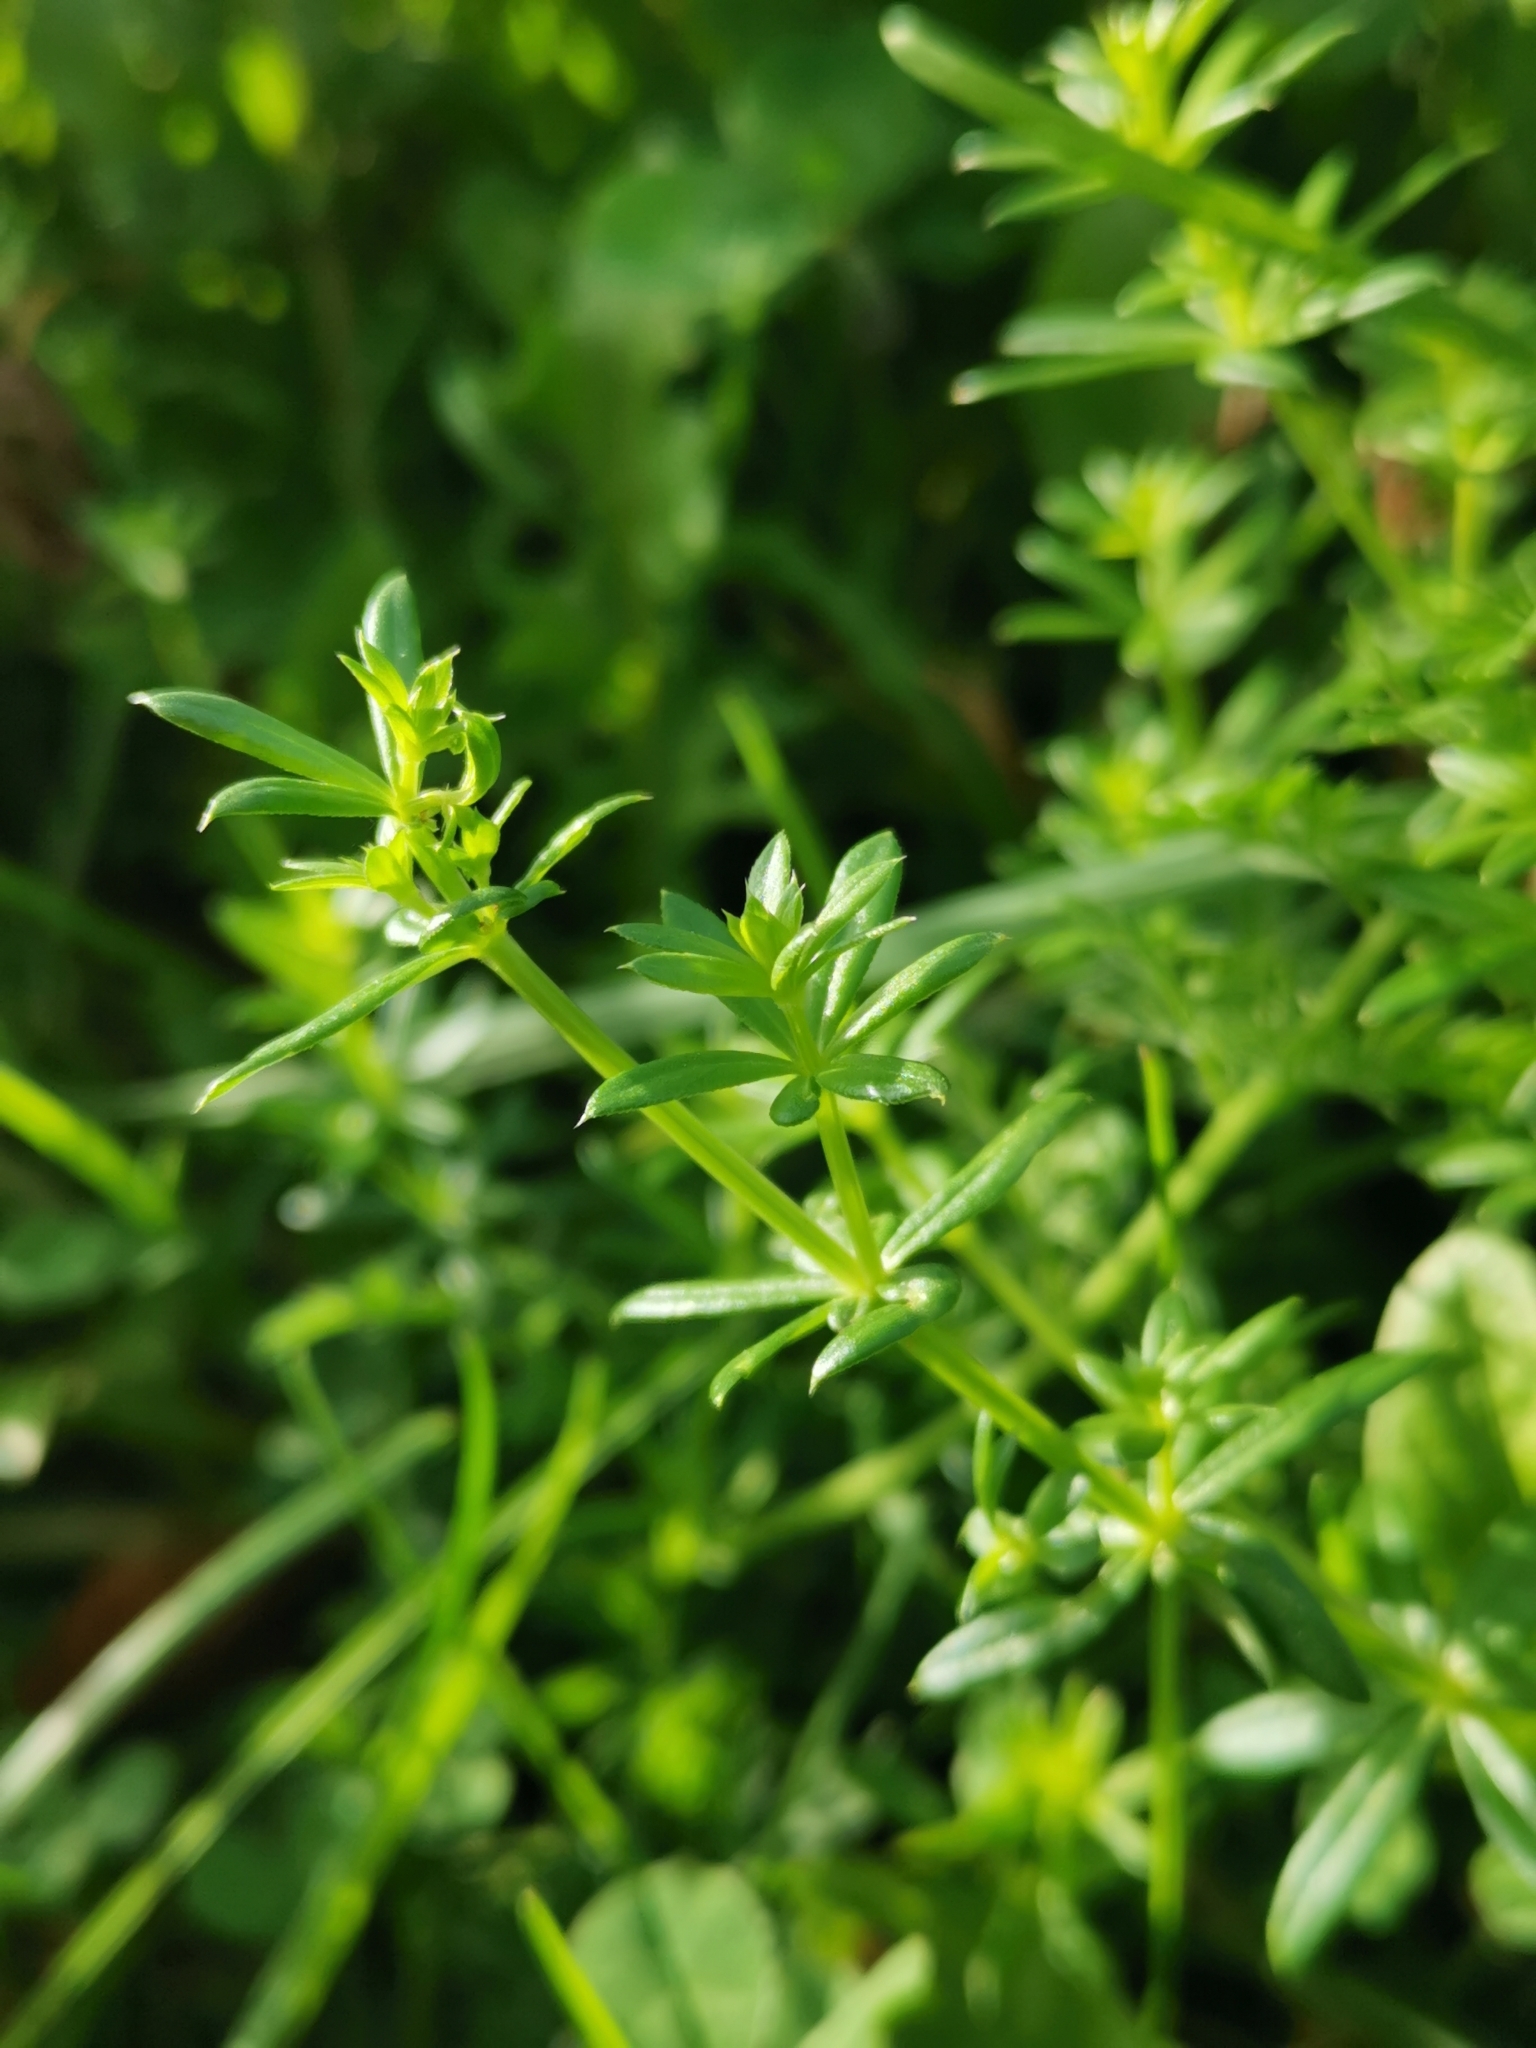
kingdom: Plantae
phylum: Tracheophyta
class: Magnoliopsida
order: Gentianales
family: Rubiaceae
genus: Galium
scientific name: Galium album
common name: White bedstraw
